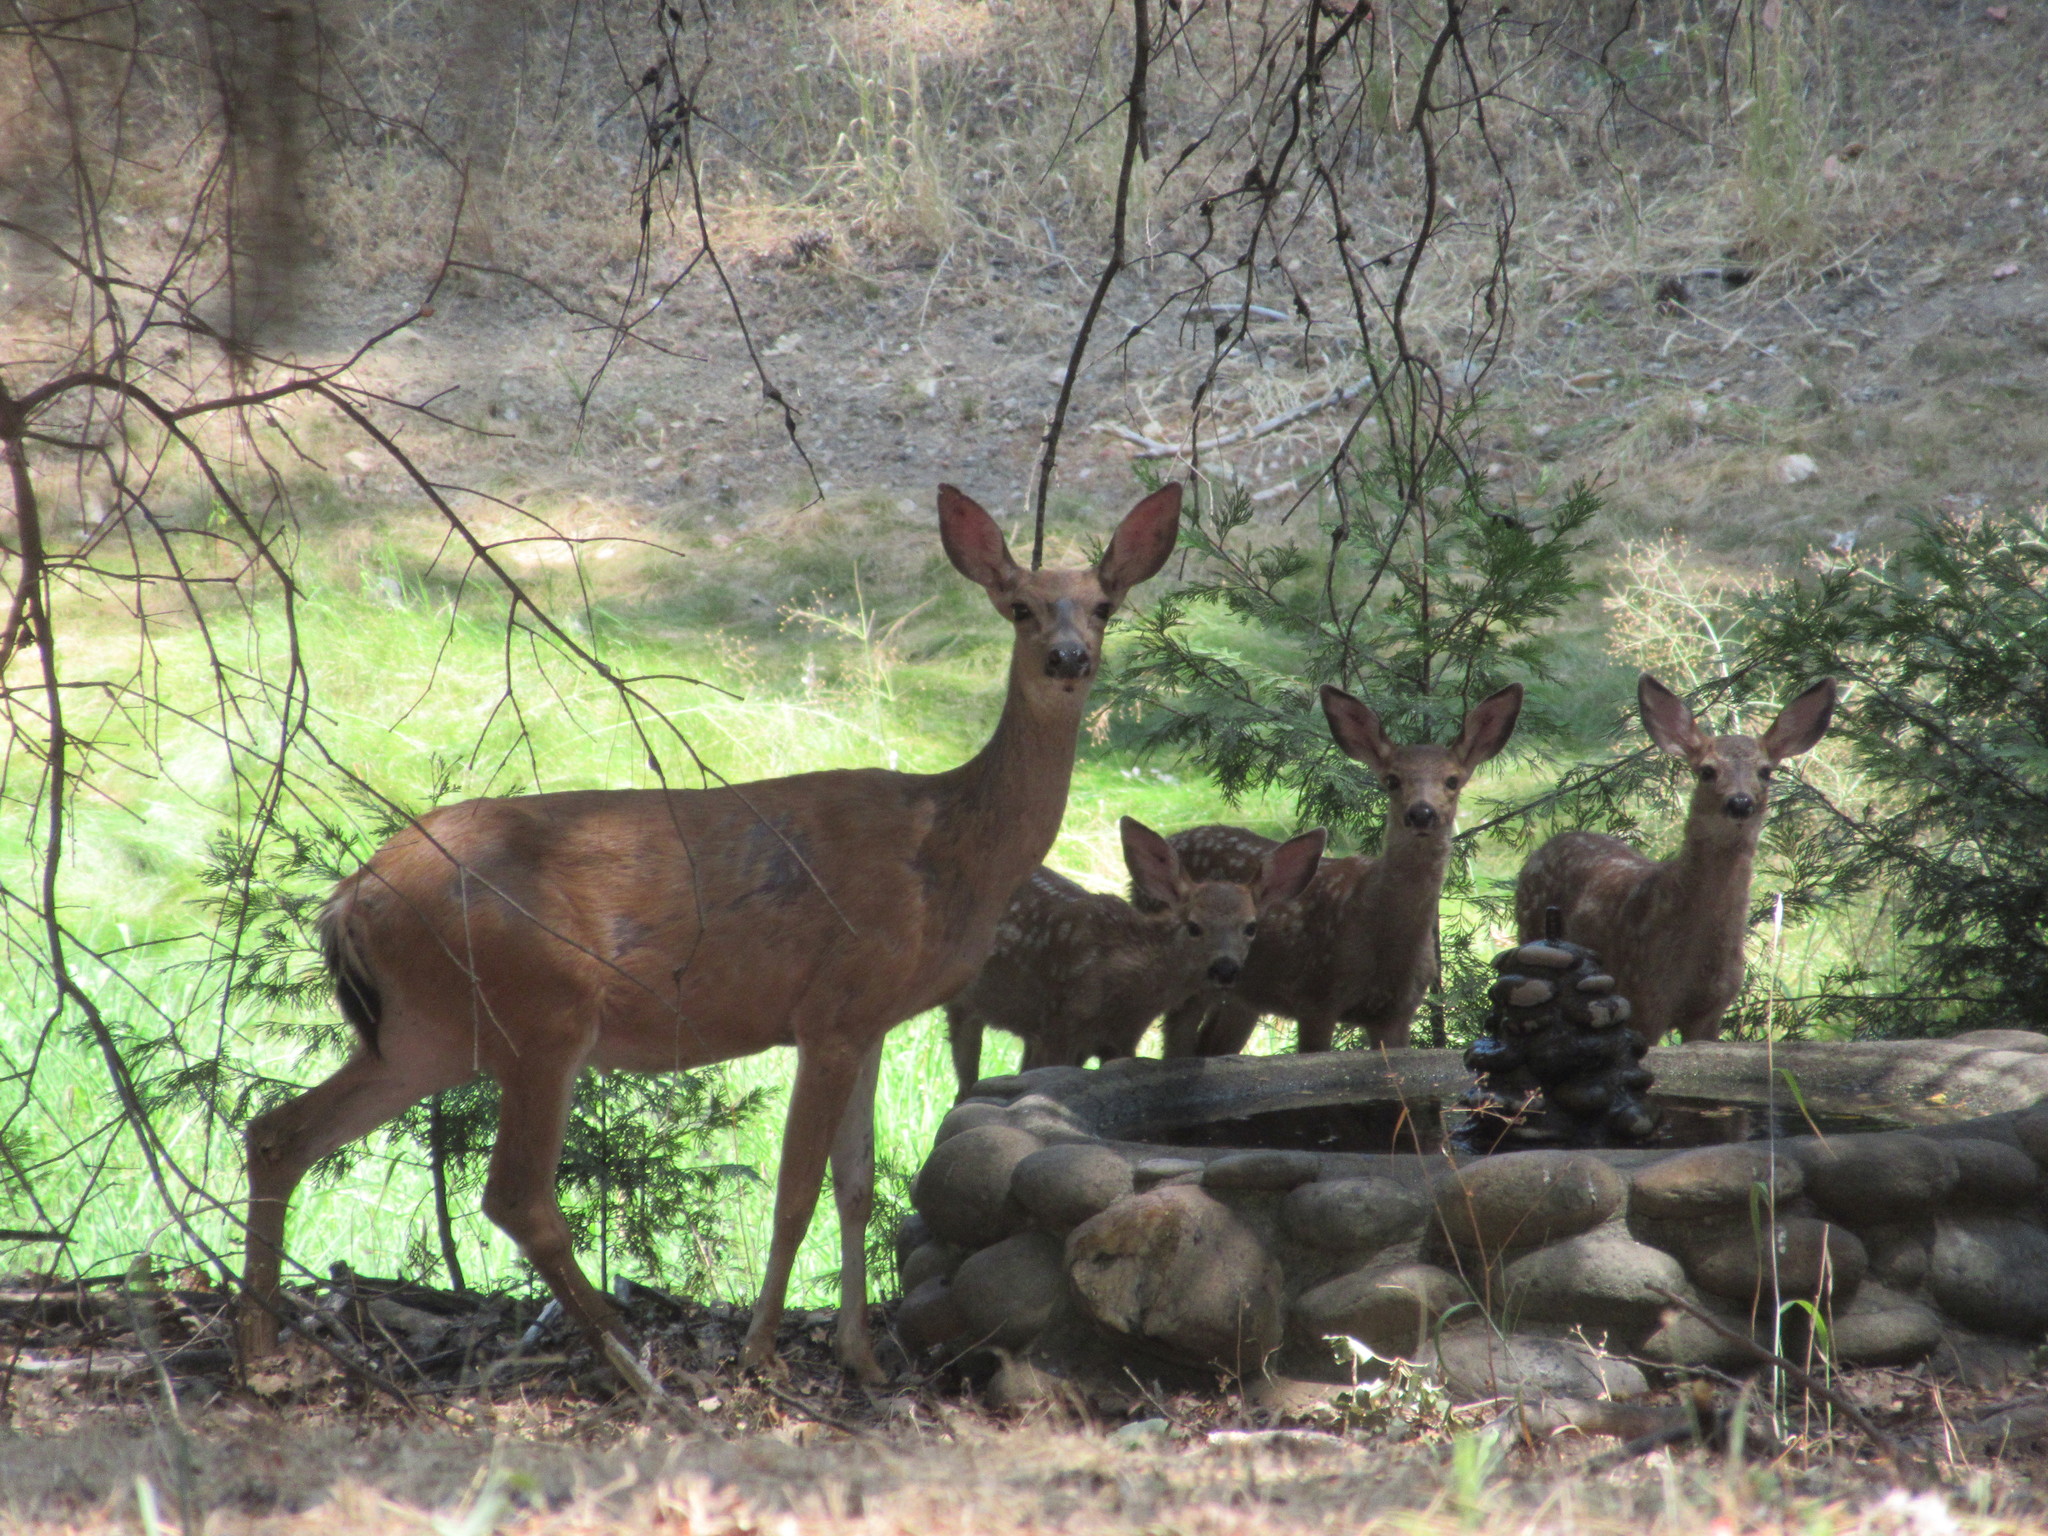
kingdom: Animalia
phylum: Chordata
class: Mammalia
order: Artiodactyla
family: Cervidae
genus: Odocoileus
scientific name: Odocoileus hemionus
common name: Mule deer
